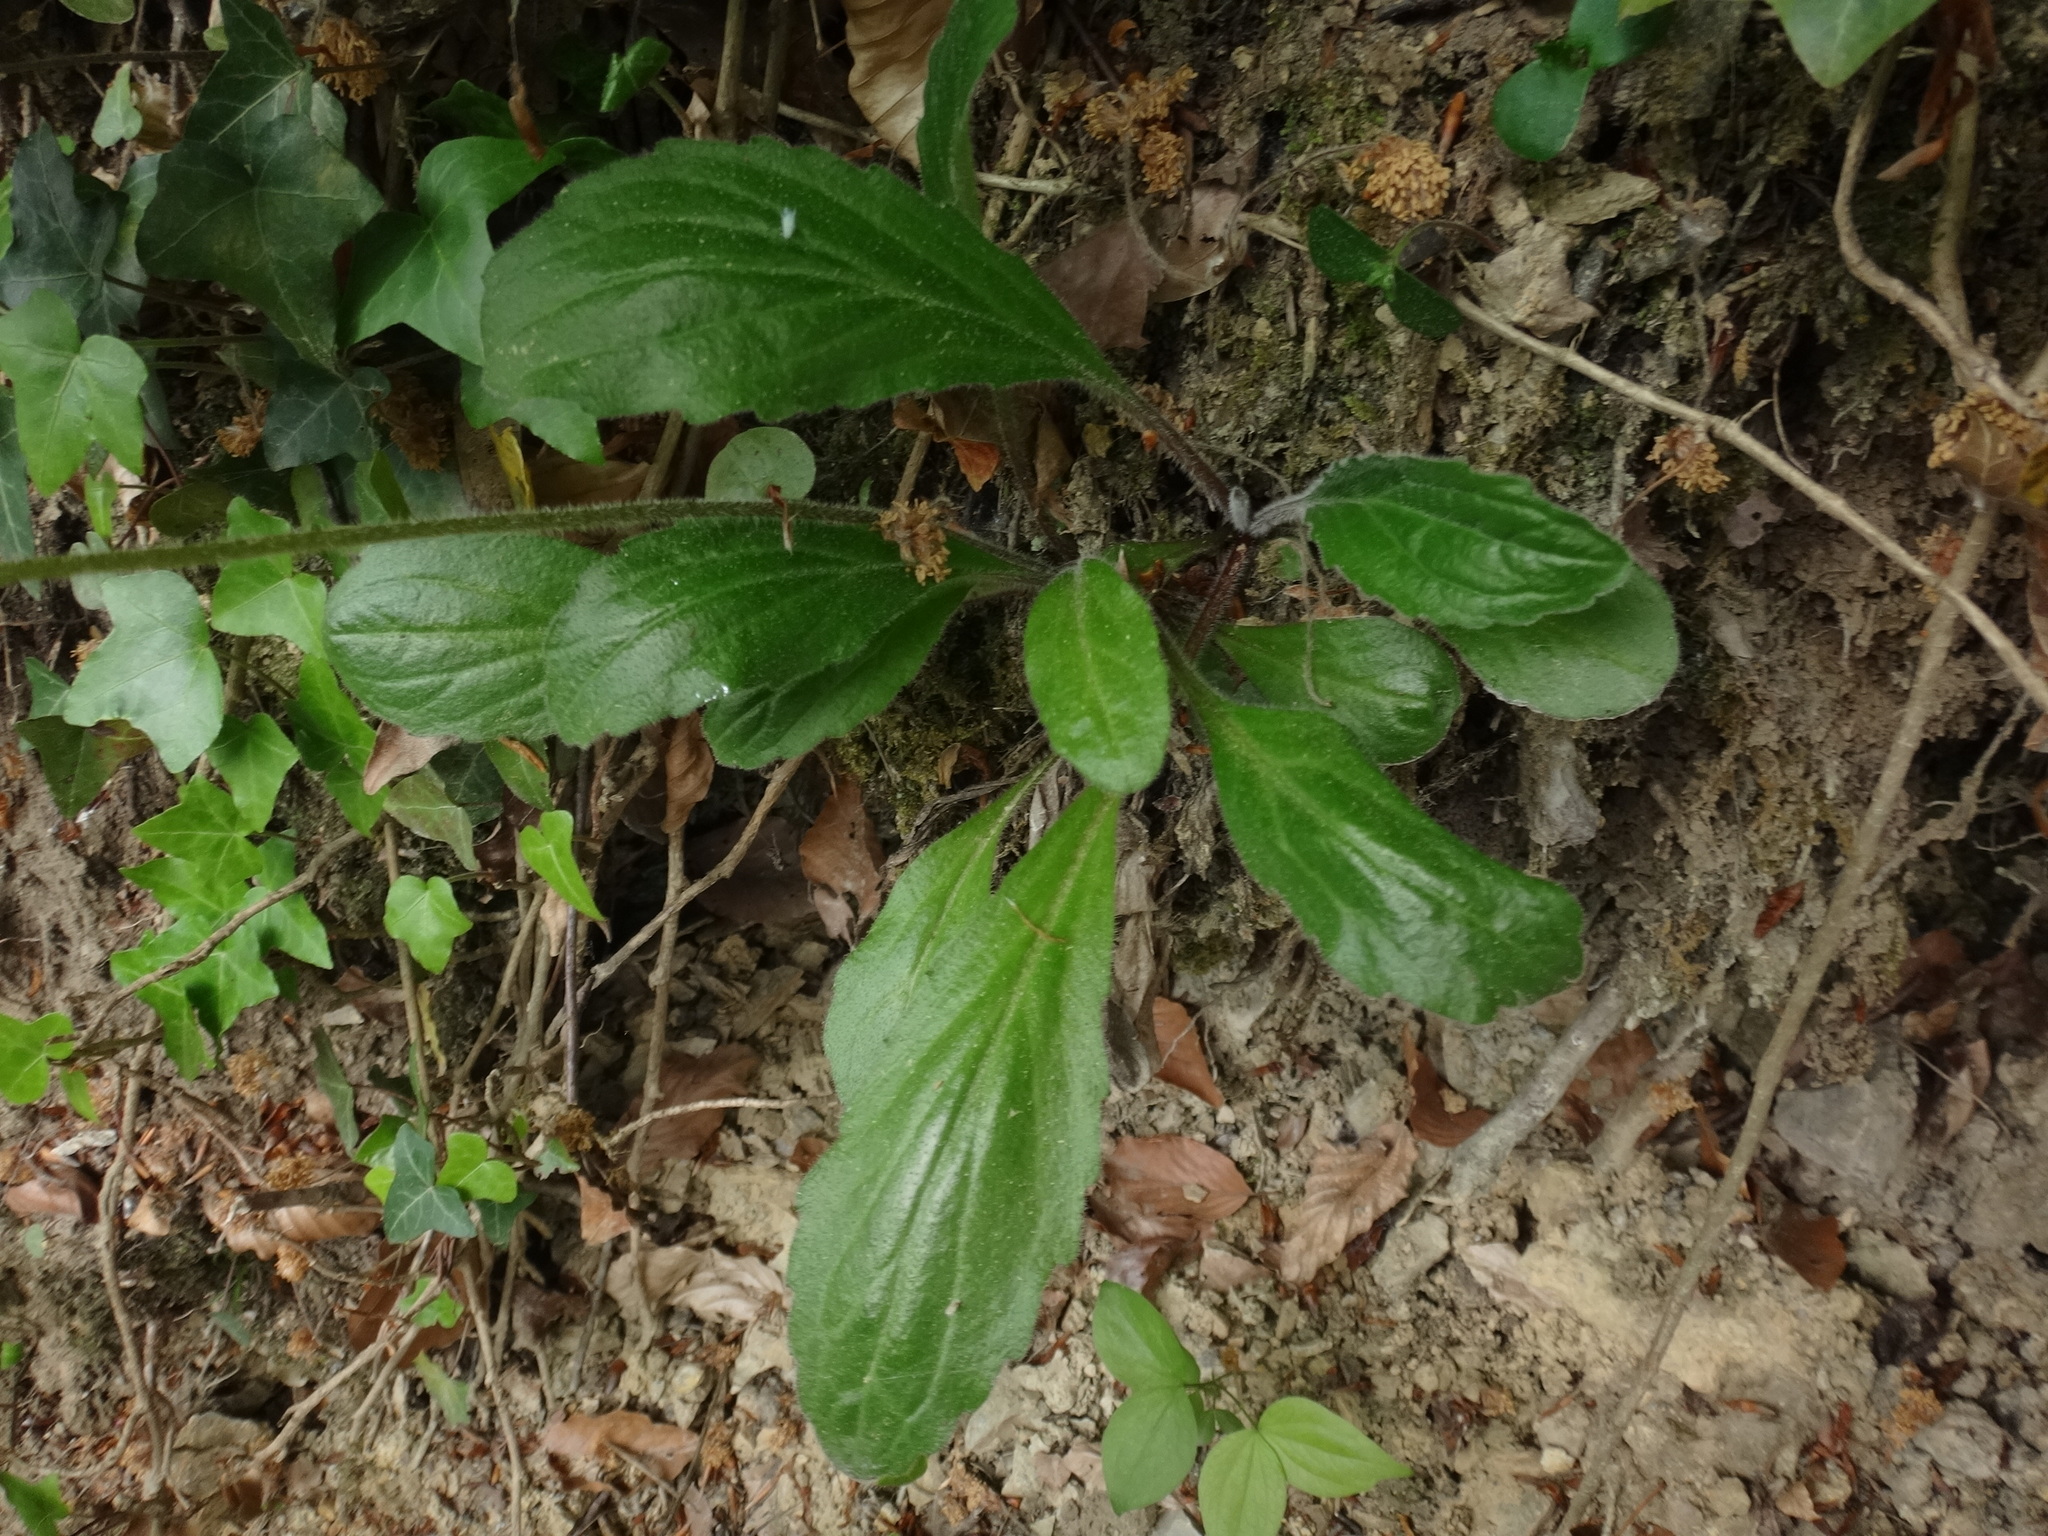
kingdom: Plantae
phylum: Tracheophyta
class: Magnoliopsida
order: Asterales
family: Asteraceae
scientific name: Asteraceae
